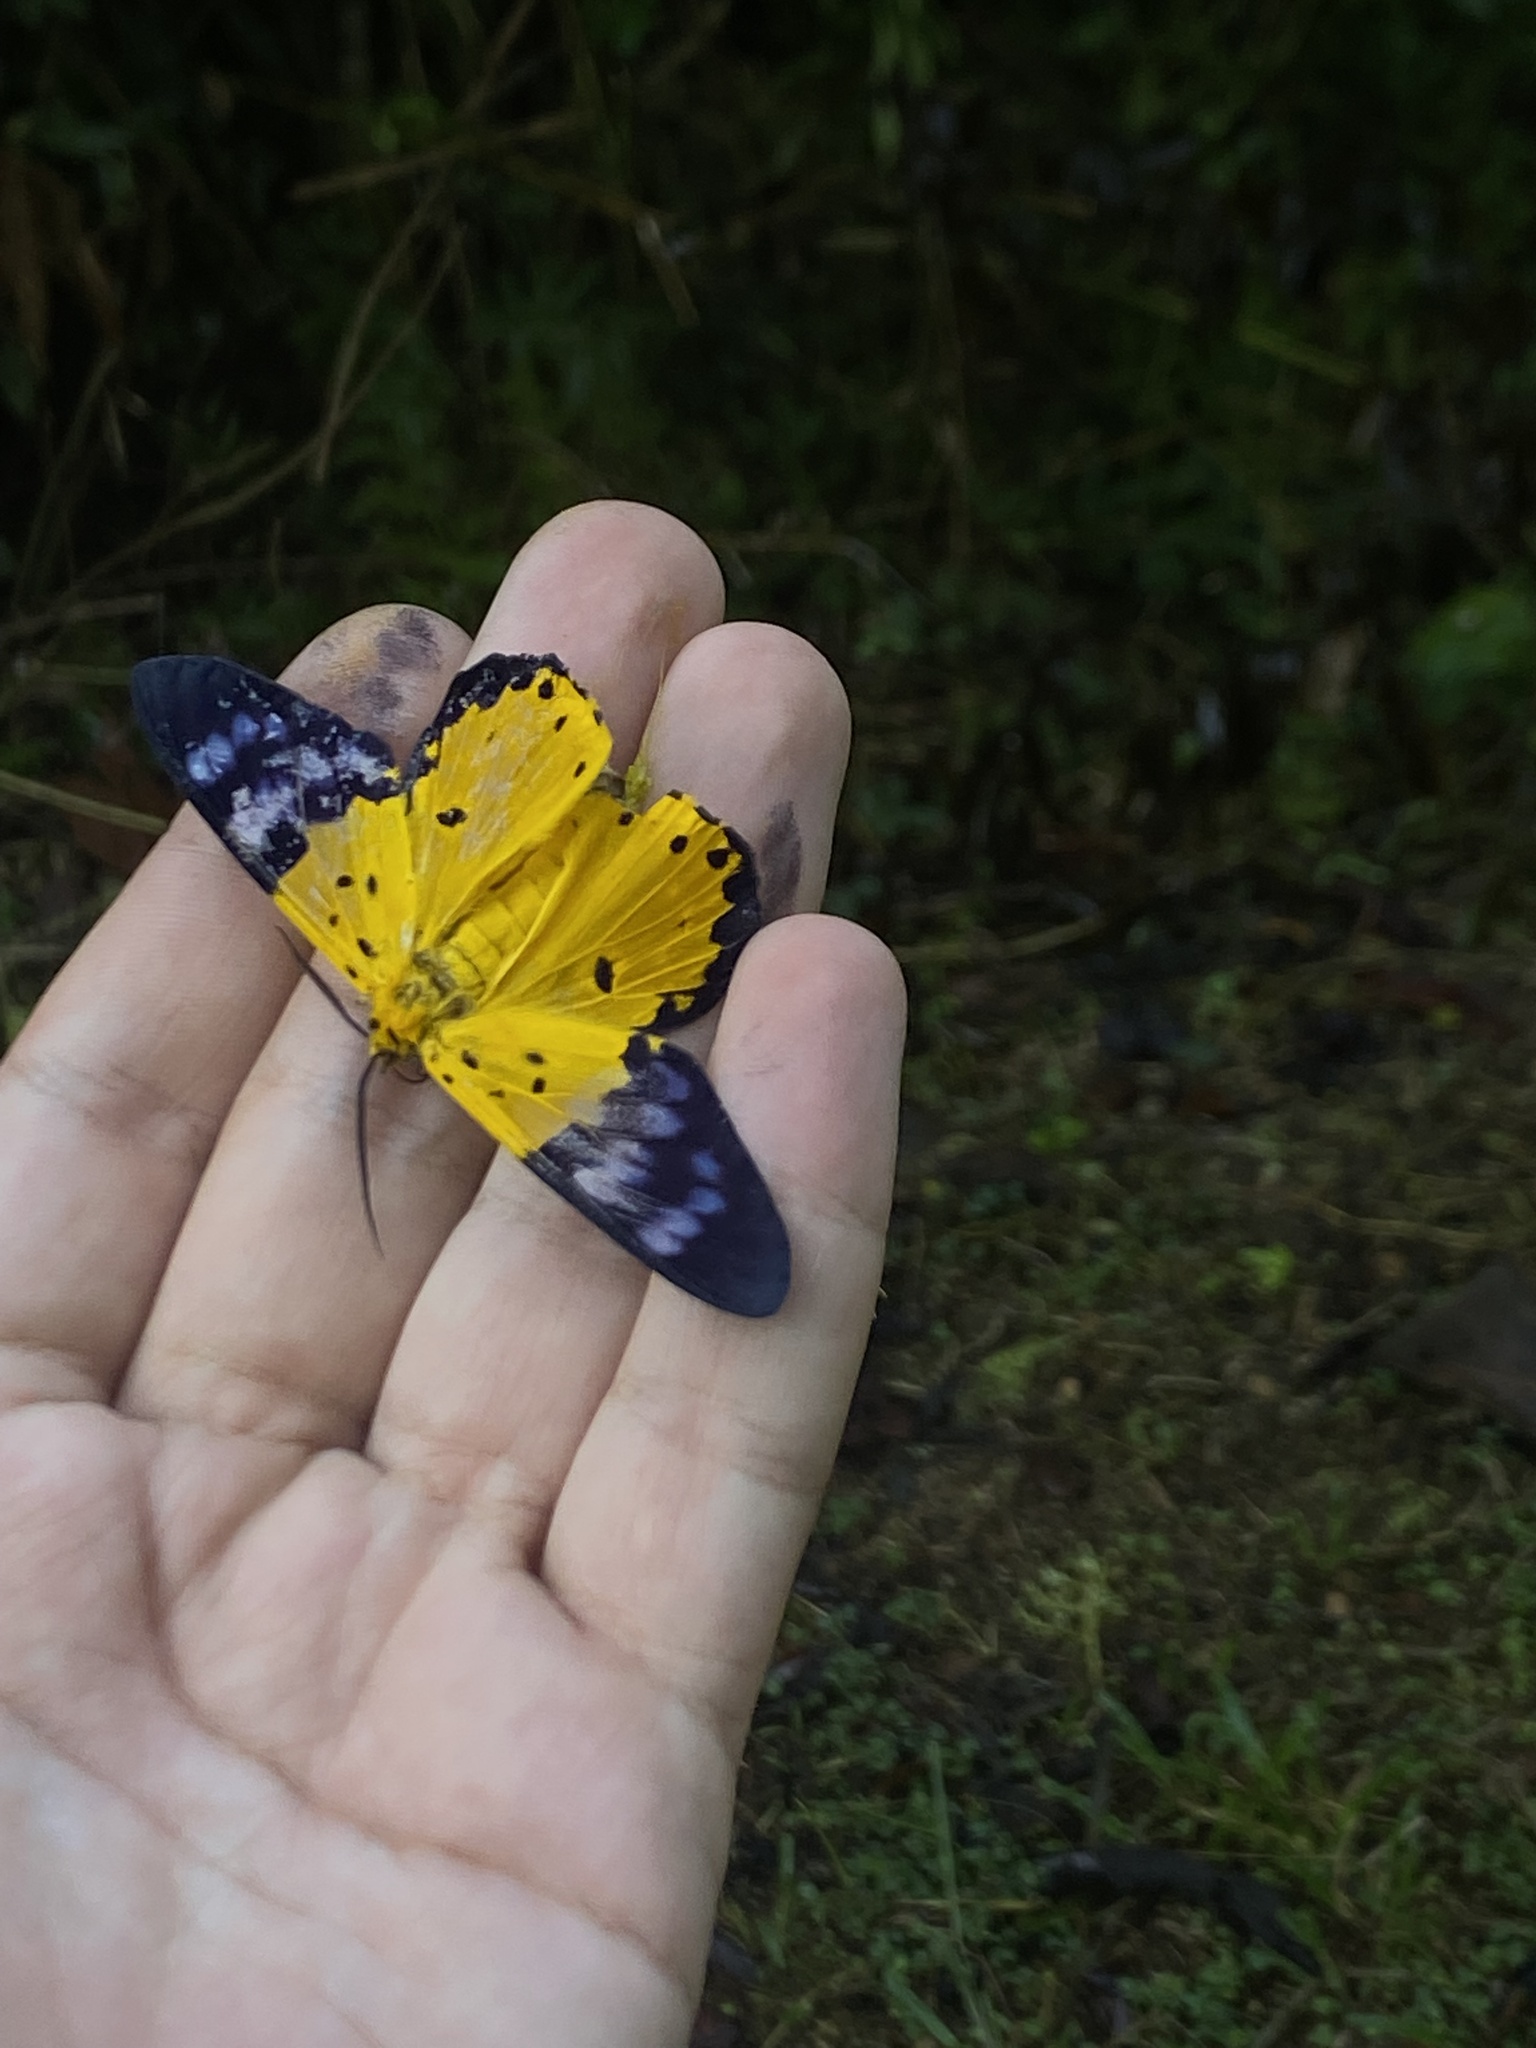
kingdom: Animalia
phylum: Arthropoda
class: Insecta
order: Lepidoptera
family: Geometridae
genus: Dysphania
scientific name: Dysphania sagana
